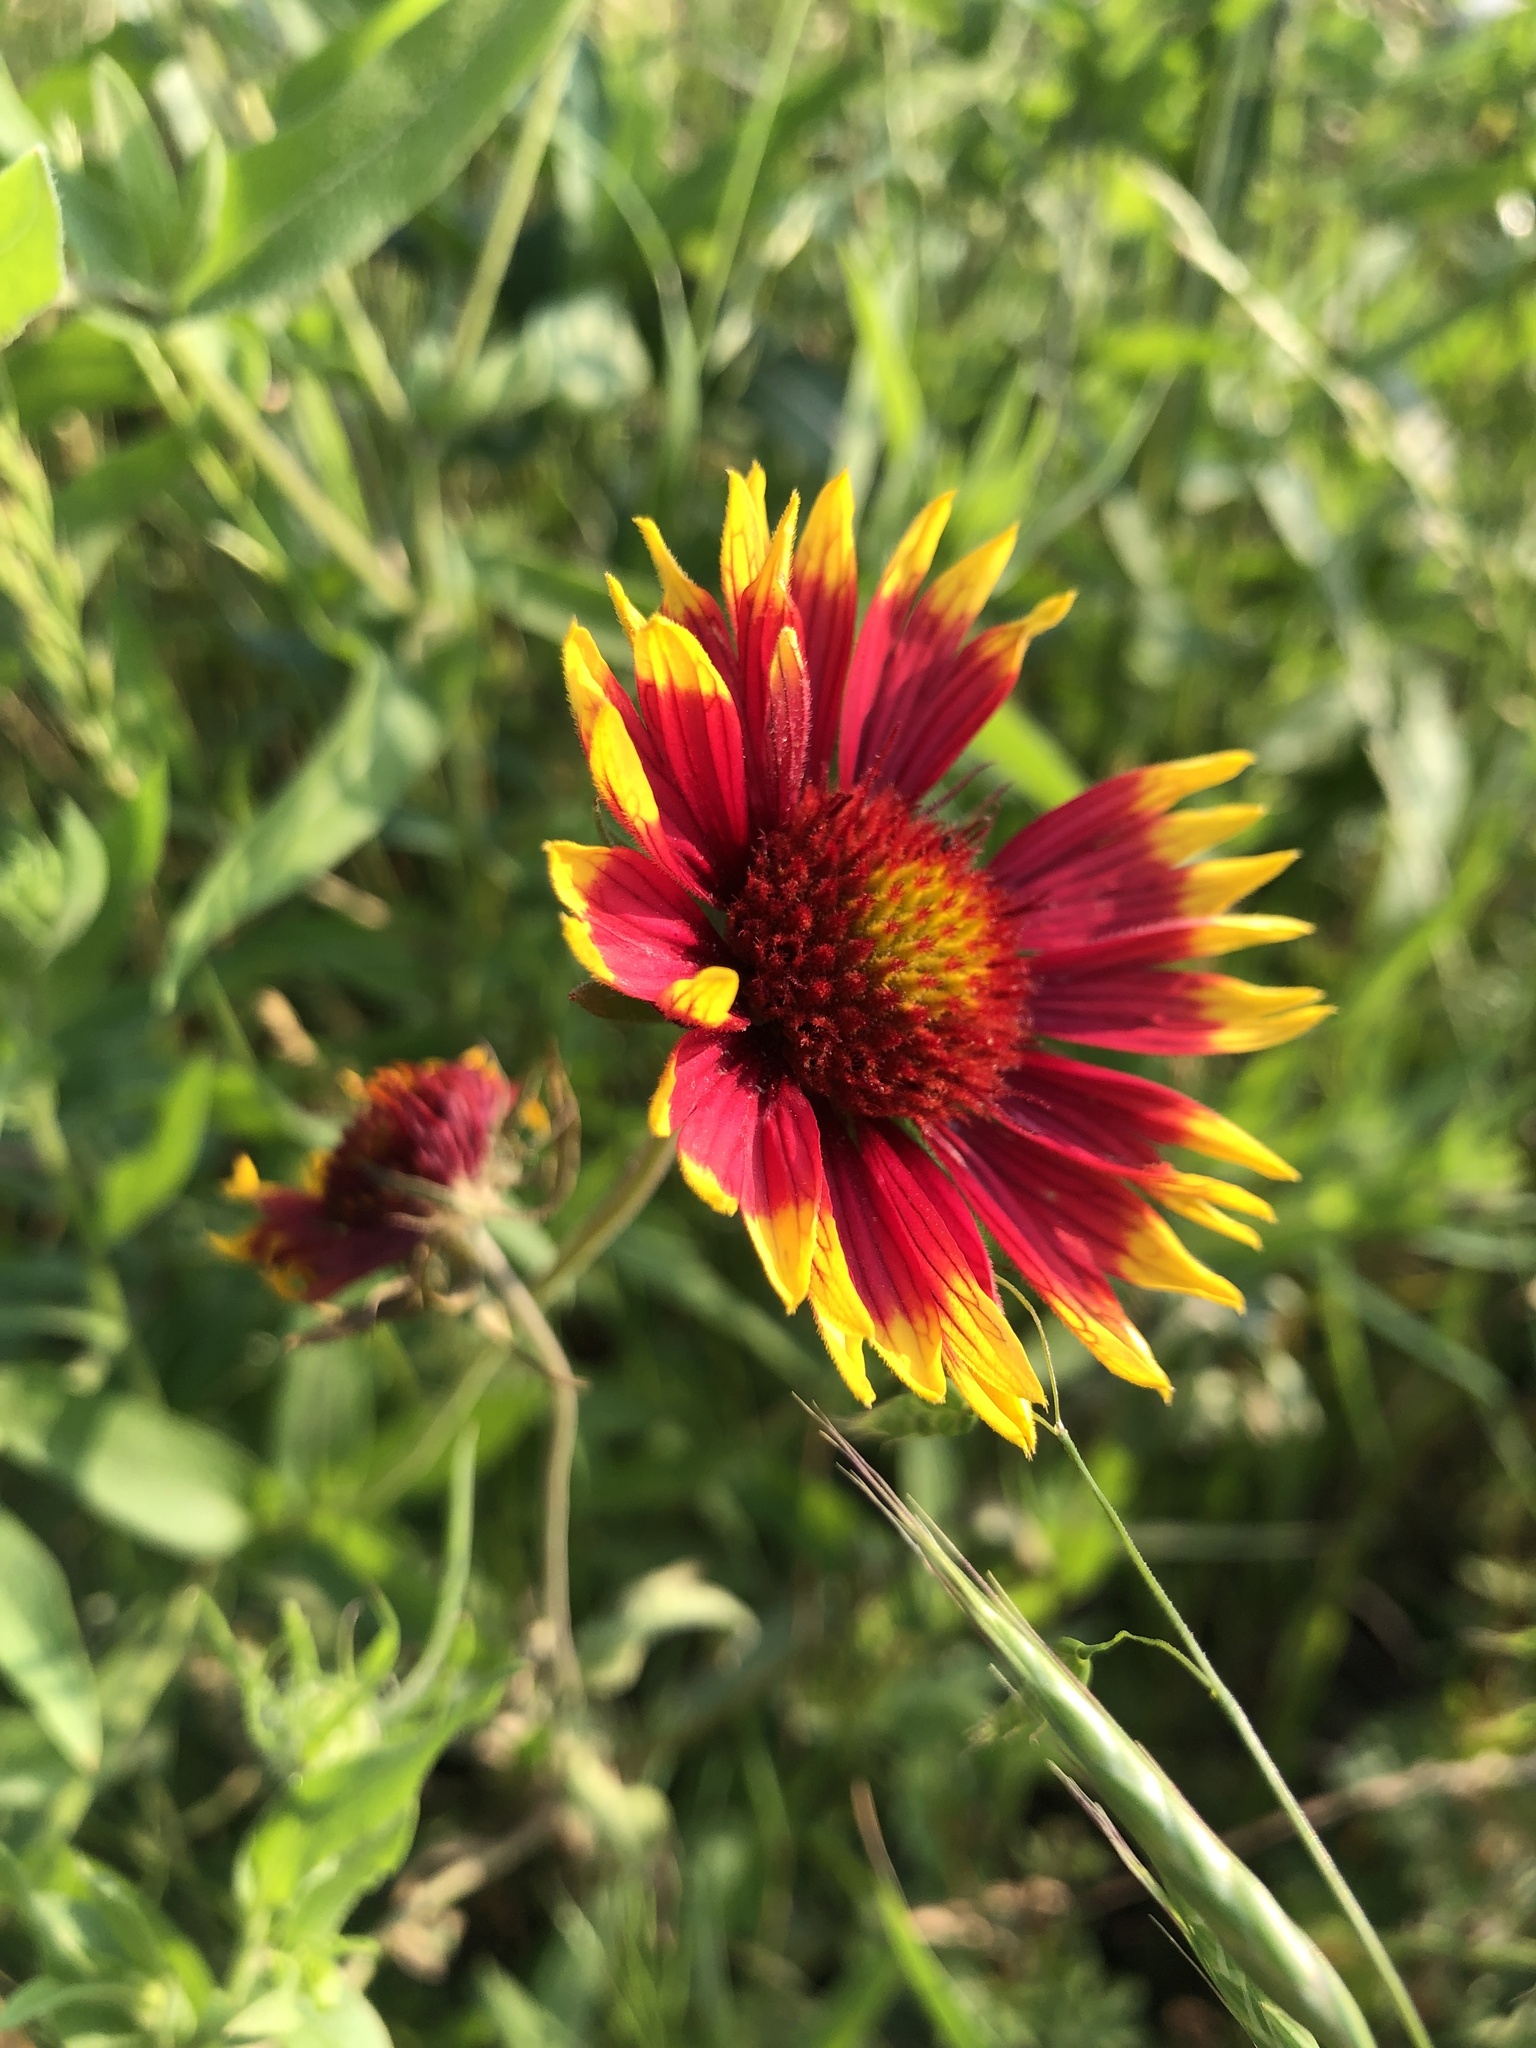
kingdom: Plantae
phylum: Tracheophyta
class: Magnoliopsida
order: Asterales
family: Asteraceae
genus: Gaillardia
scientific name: Gaillardia pulchella
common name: Firewheel
